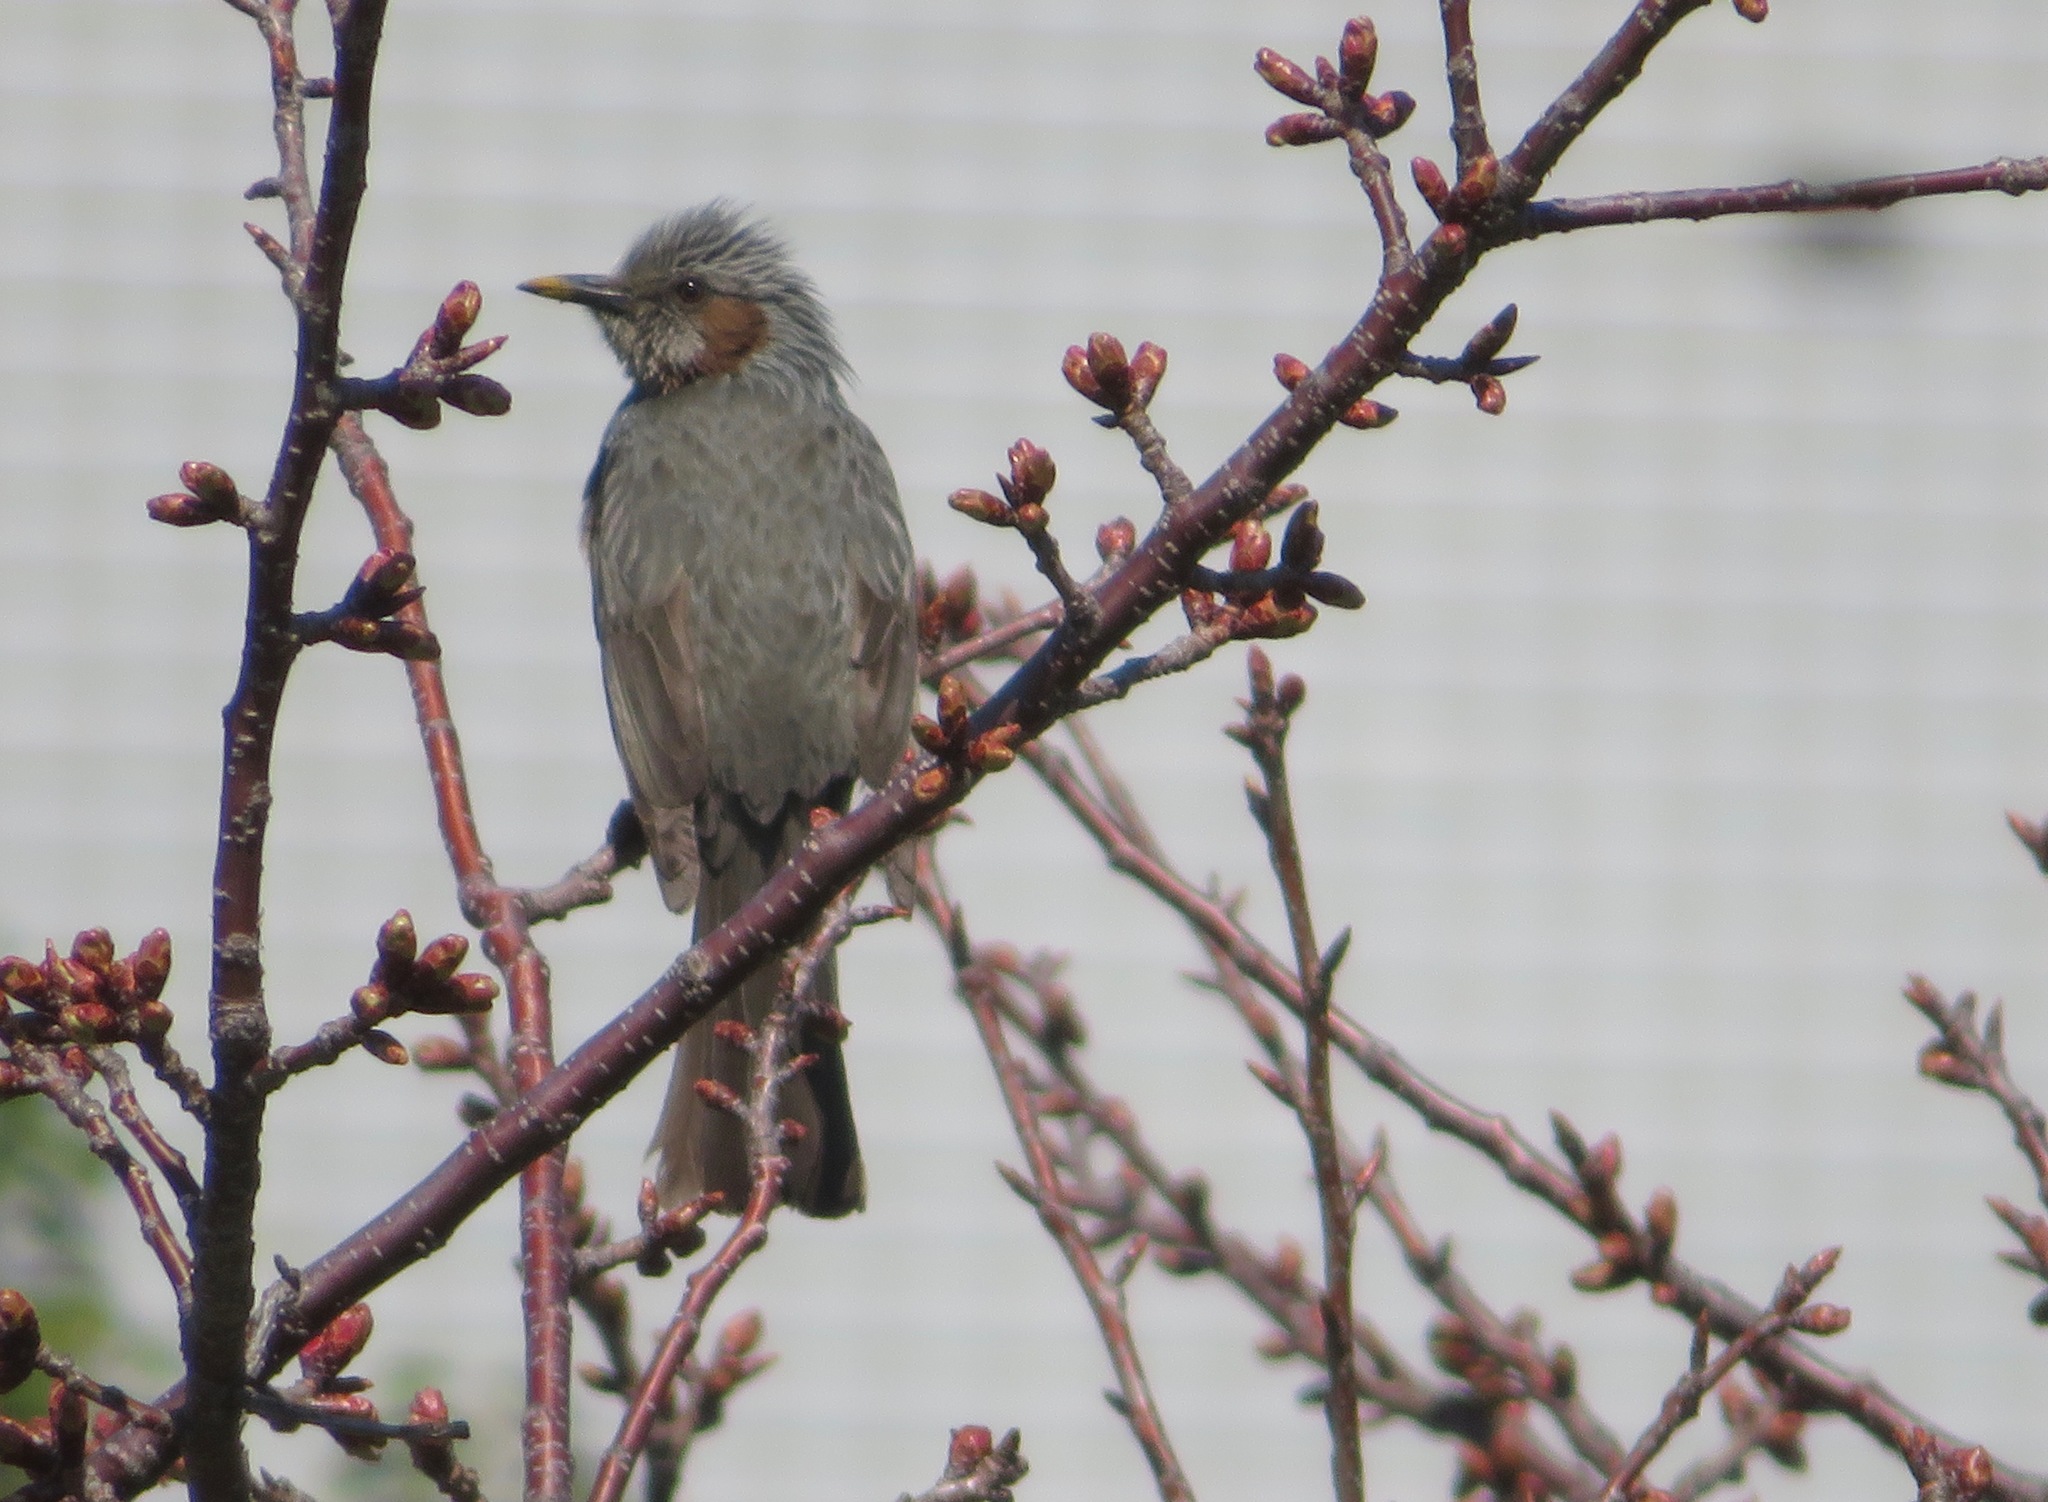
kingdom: Animalia
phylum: Chordata
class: Aves
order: Passeriformes
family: Pycnonotidae
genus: Hypsipetes
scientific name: Hypsipetes amaurotis
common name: Brown-eared bulbul
